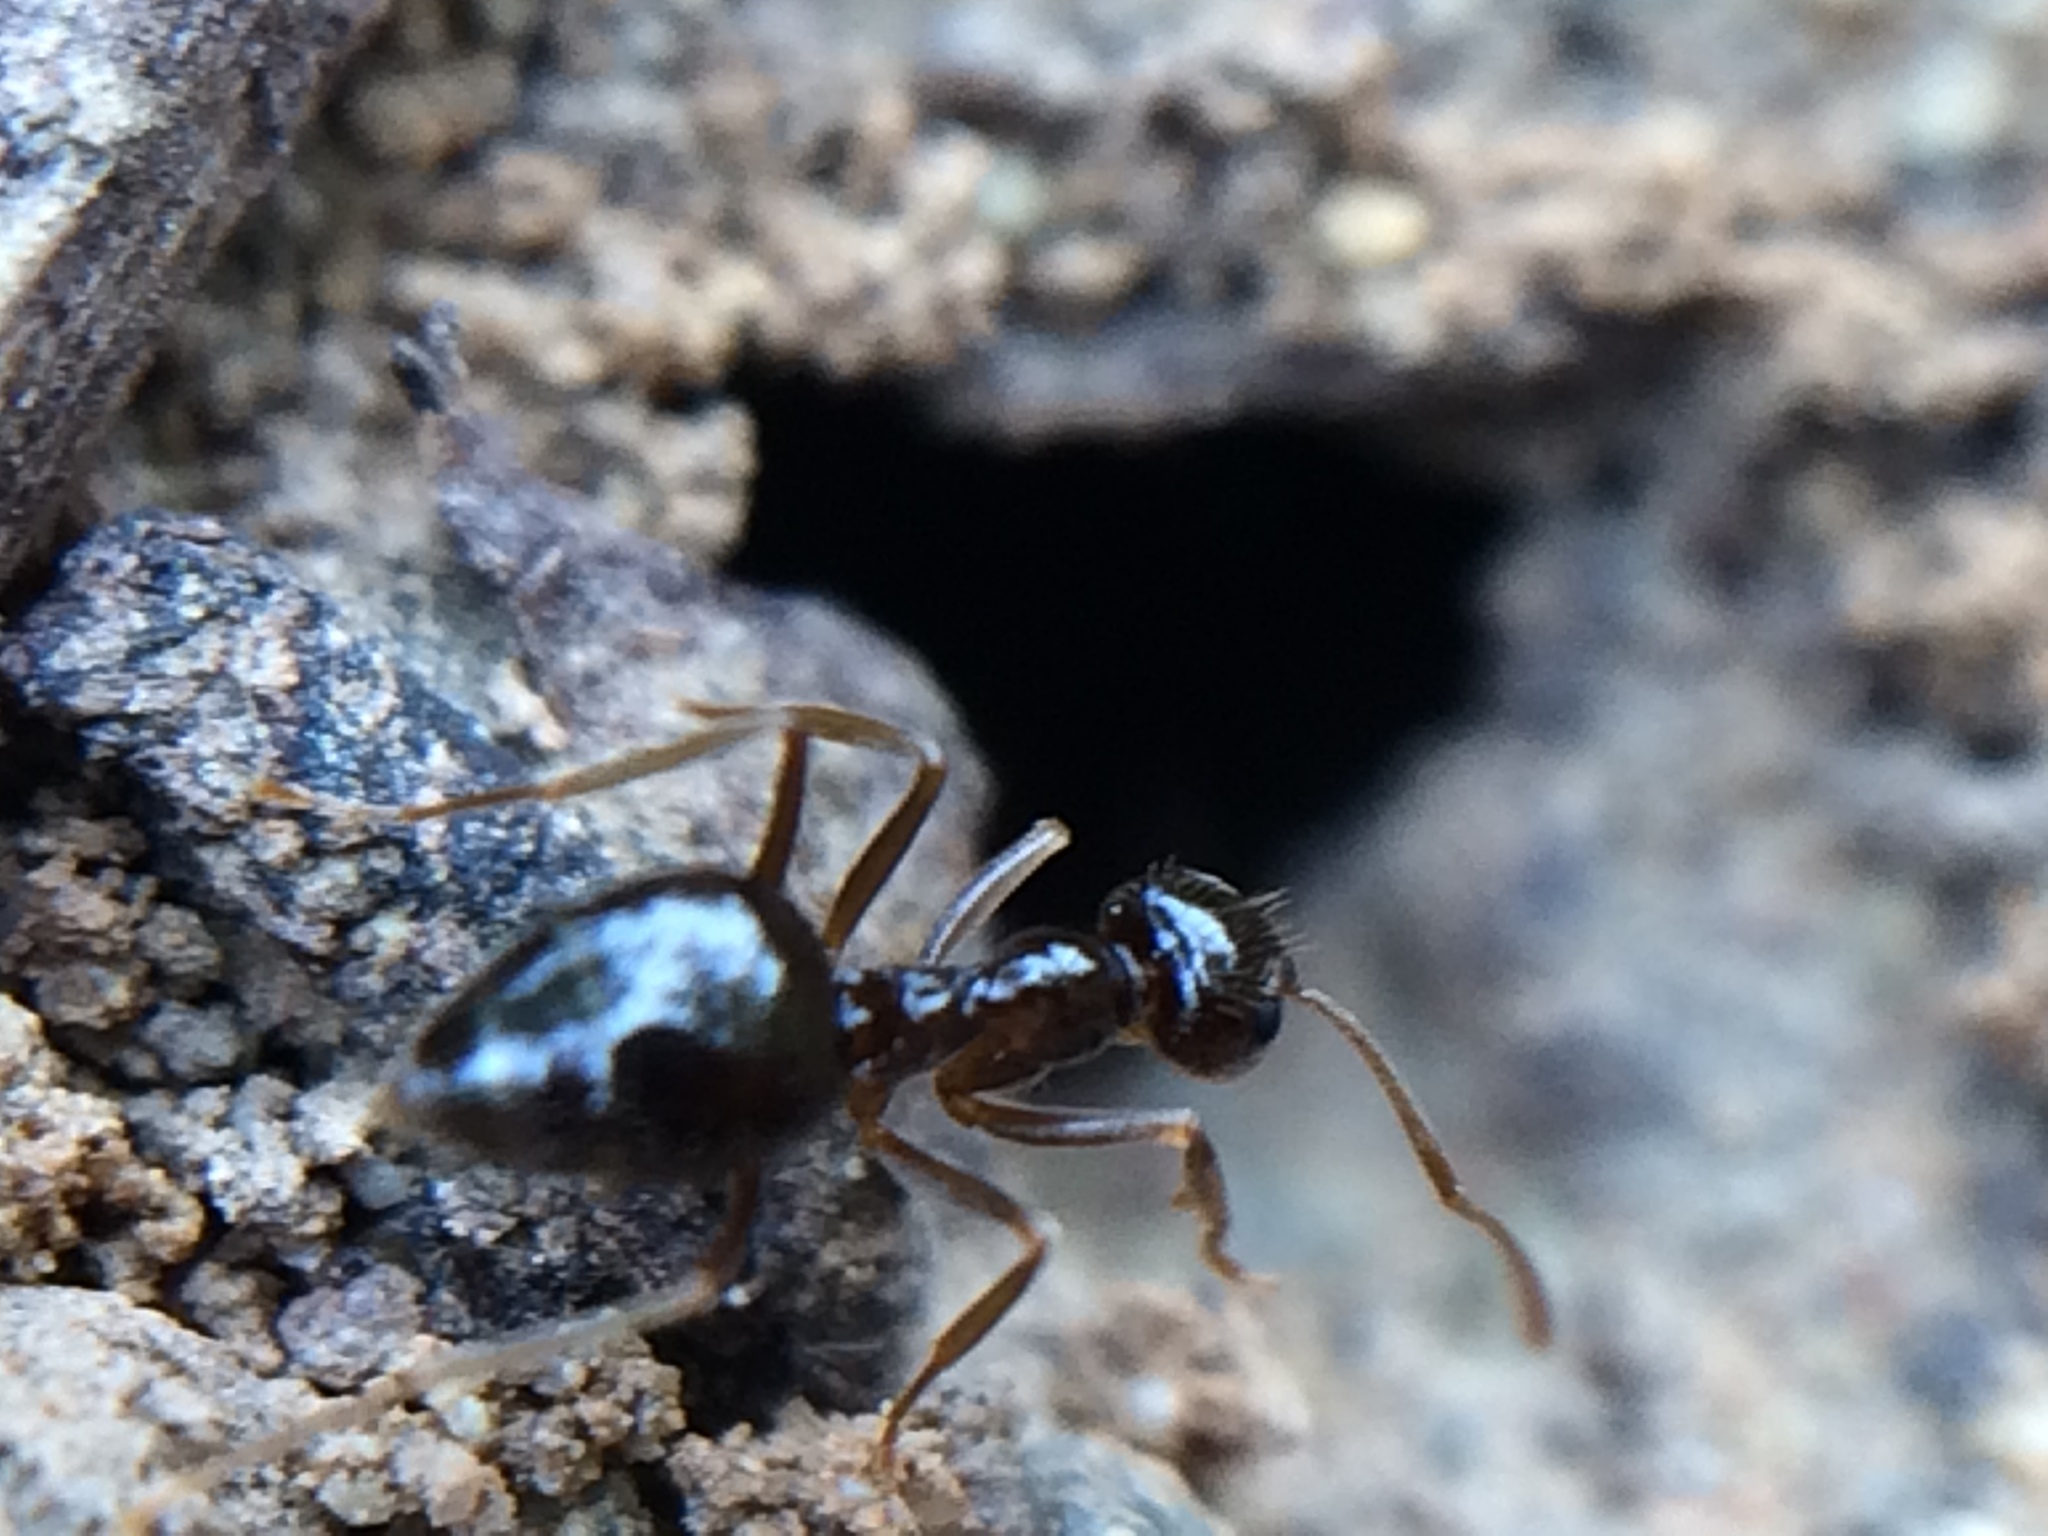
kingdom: Animalia
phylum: Arthropoda
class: Insecta
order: Hymenoptera
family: Formicidae
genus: Prenolepis
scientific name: Prenolepis imparis
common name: Small honey ant
